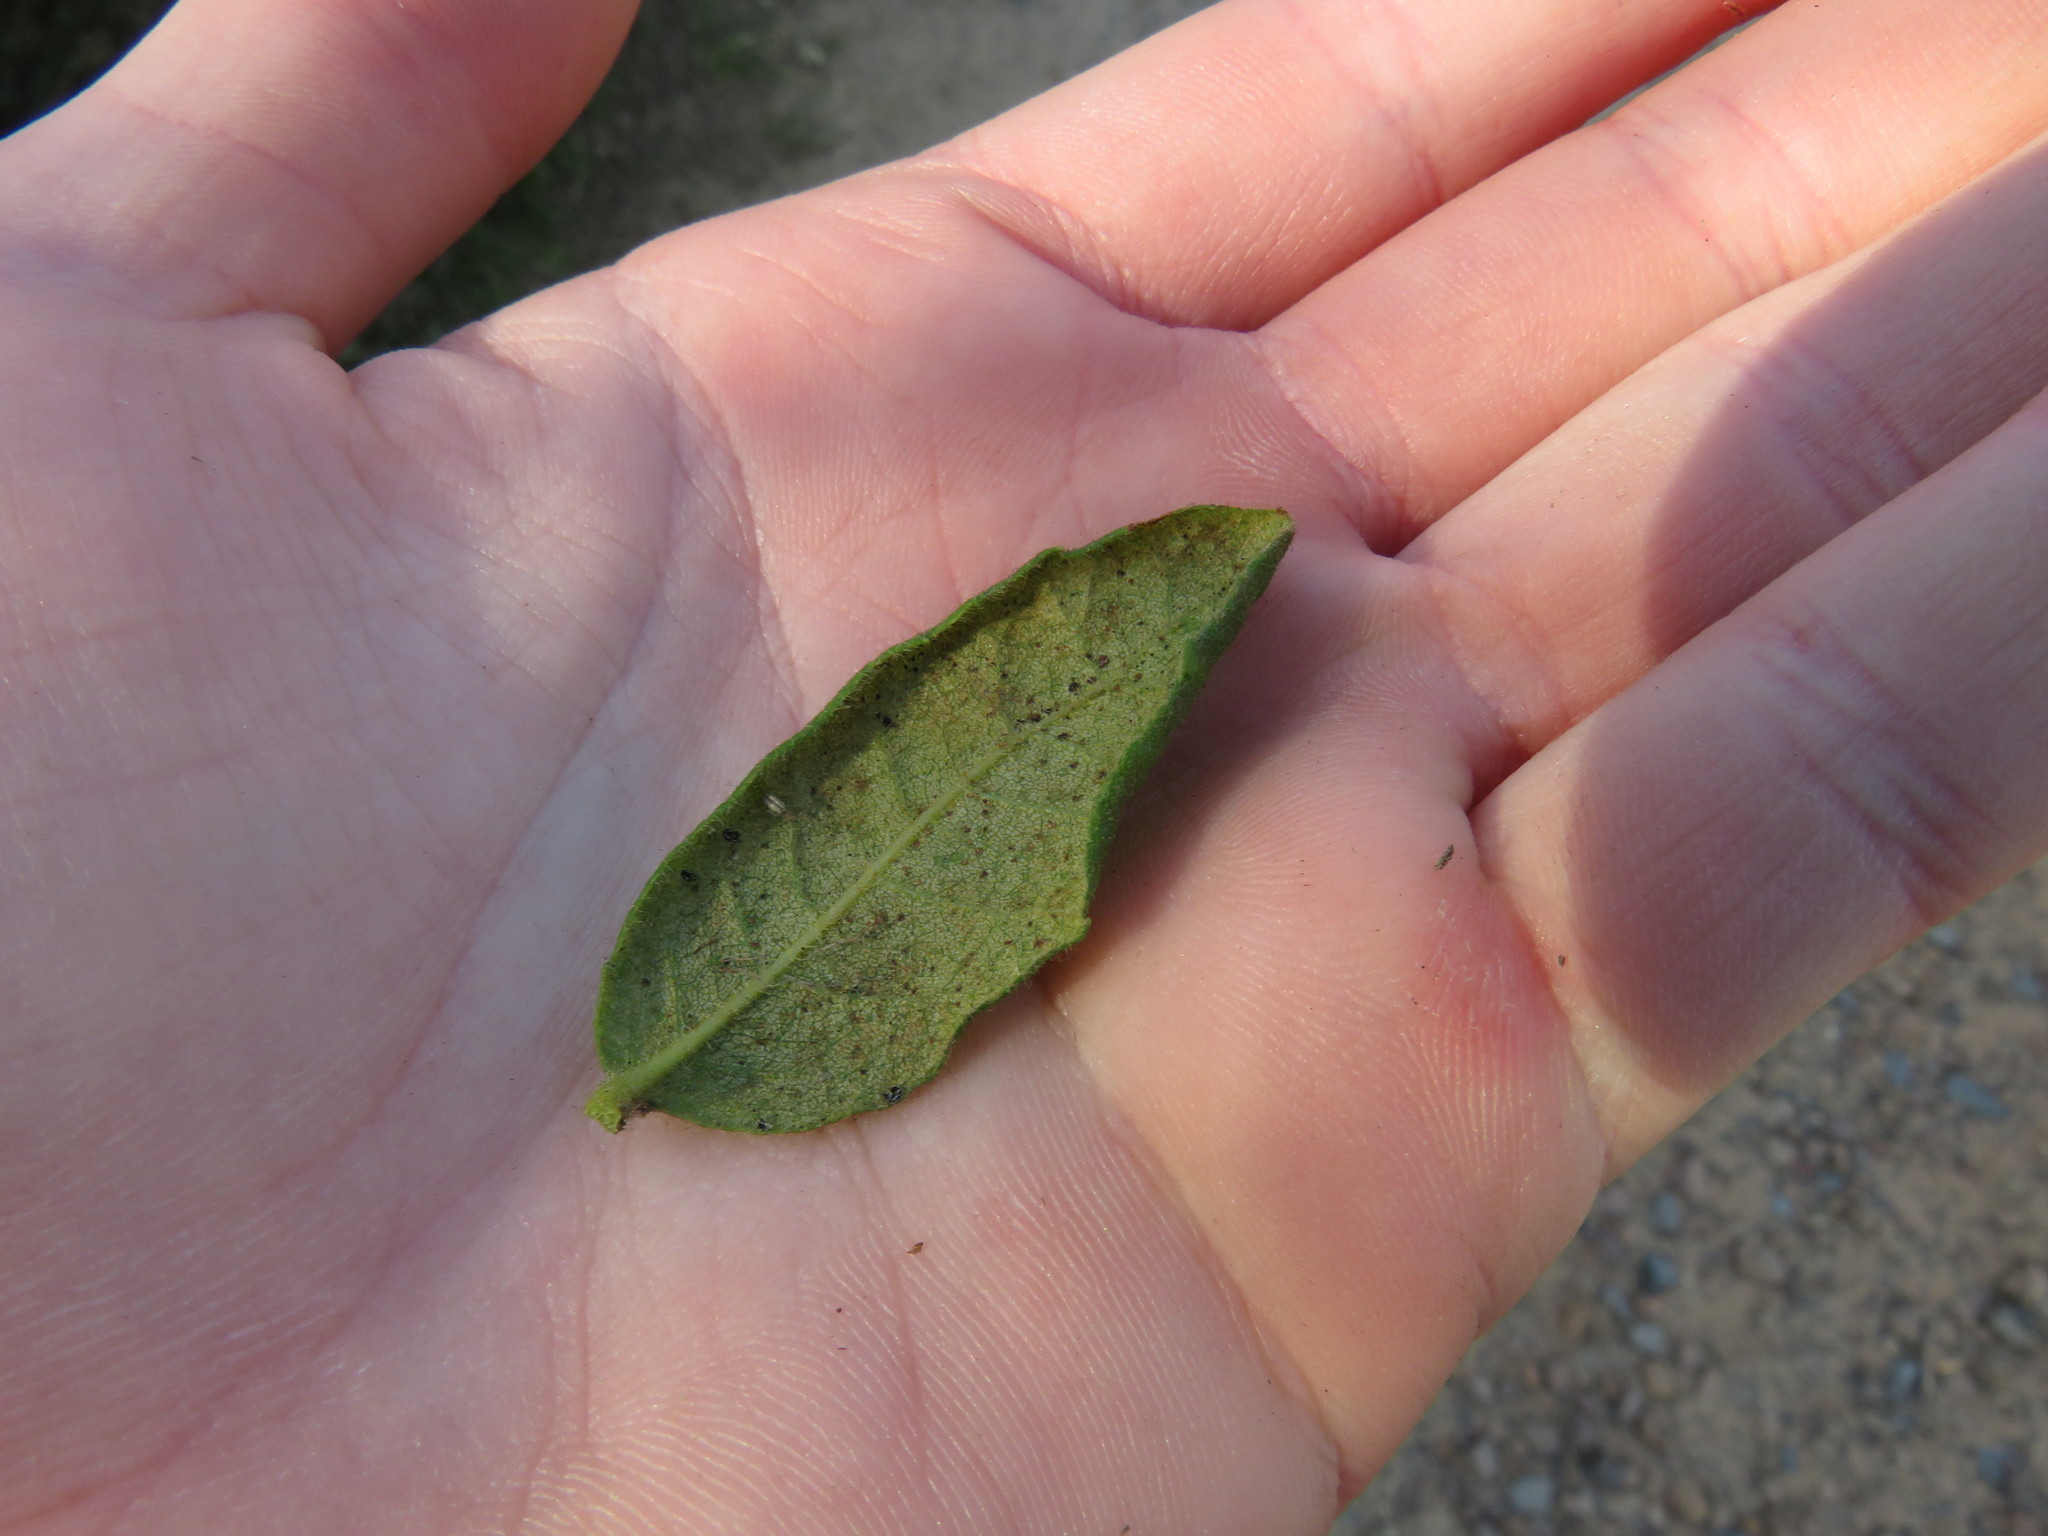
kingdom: Plantae
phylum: Tracheophyta
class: Magnoliopsida
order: Fagales
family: Myricaceae
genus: Morella
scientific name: Morella kraussiana
